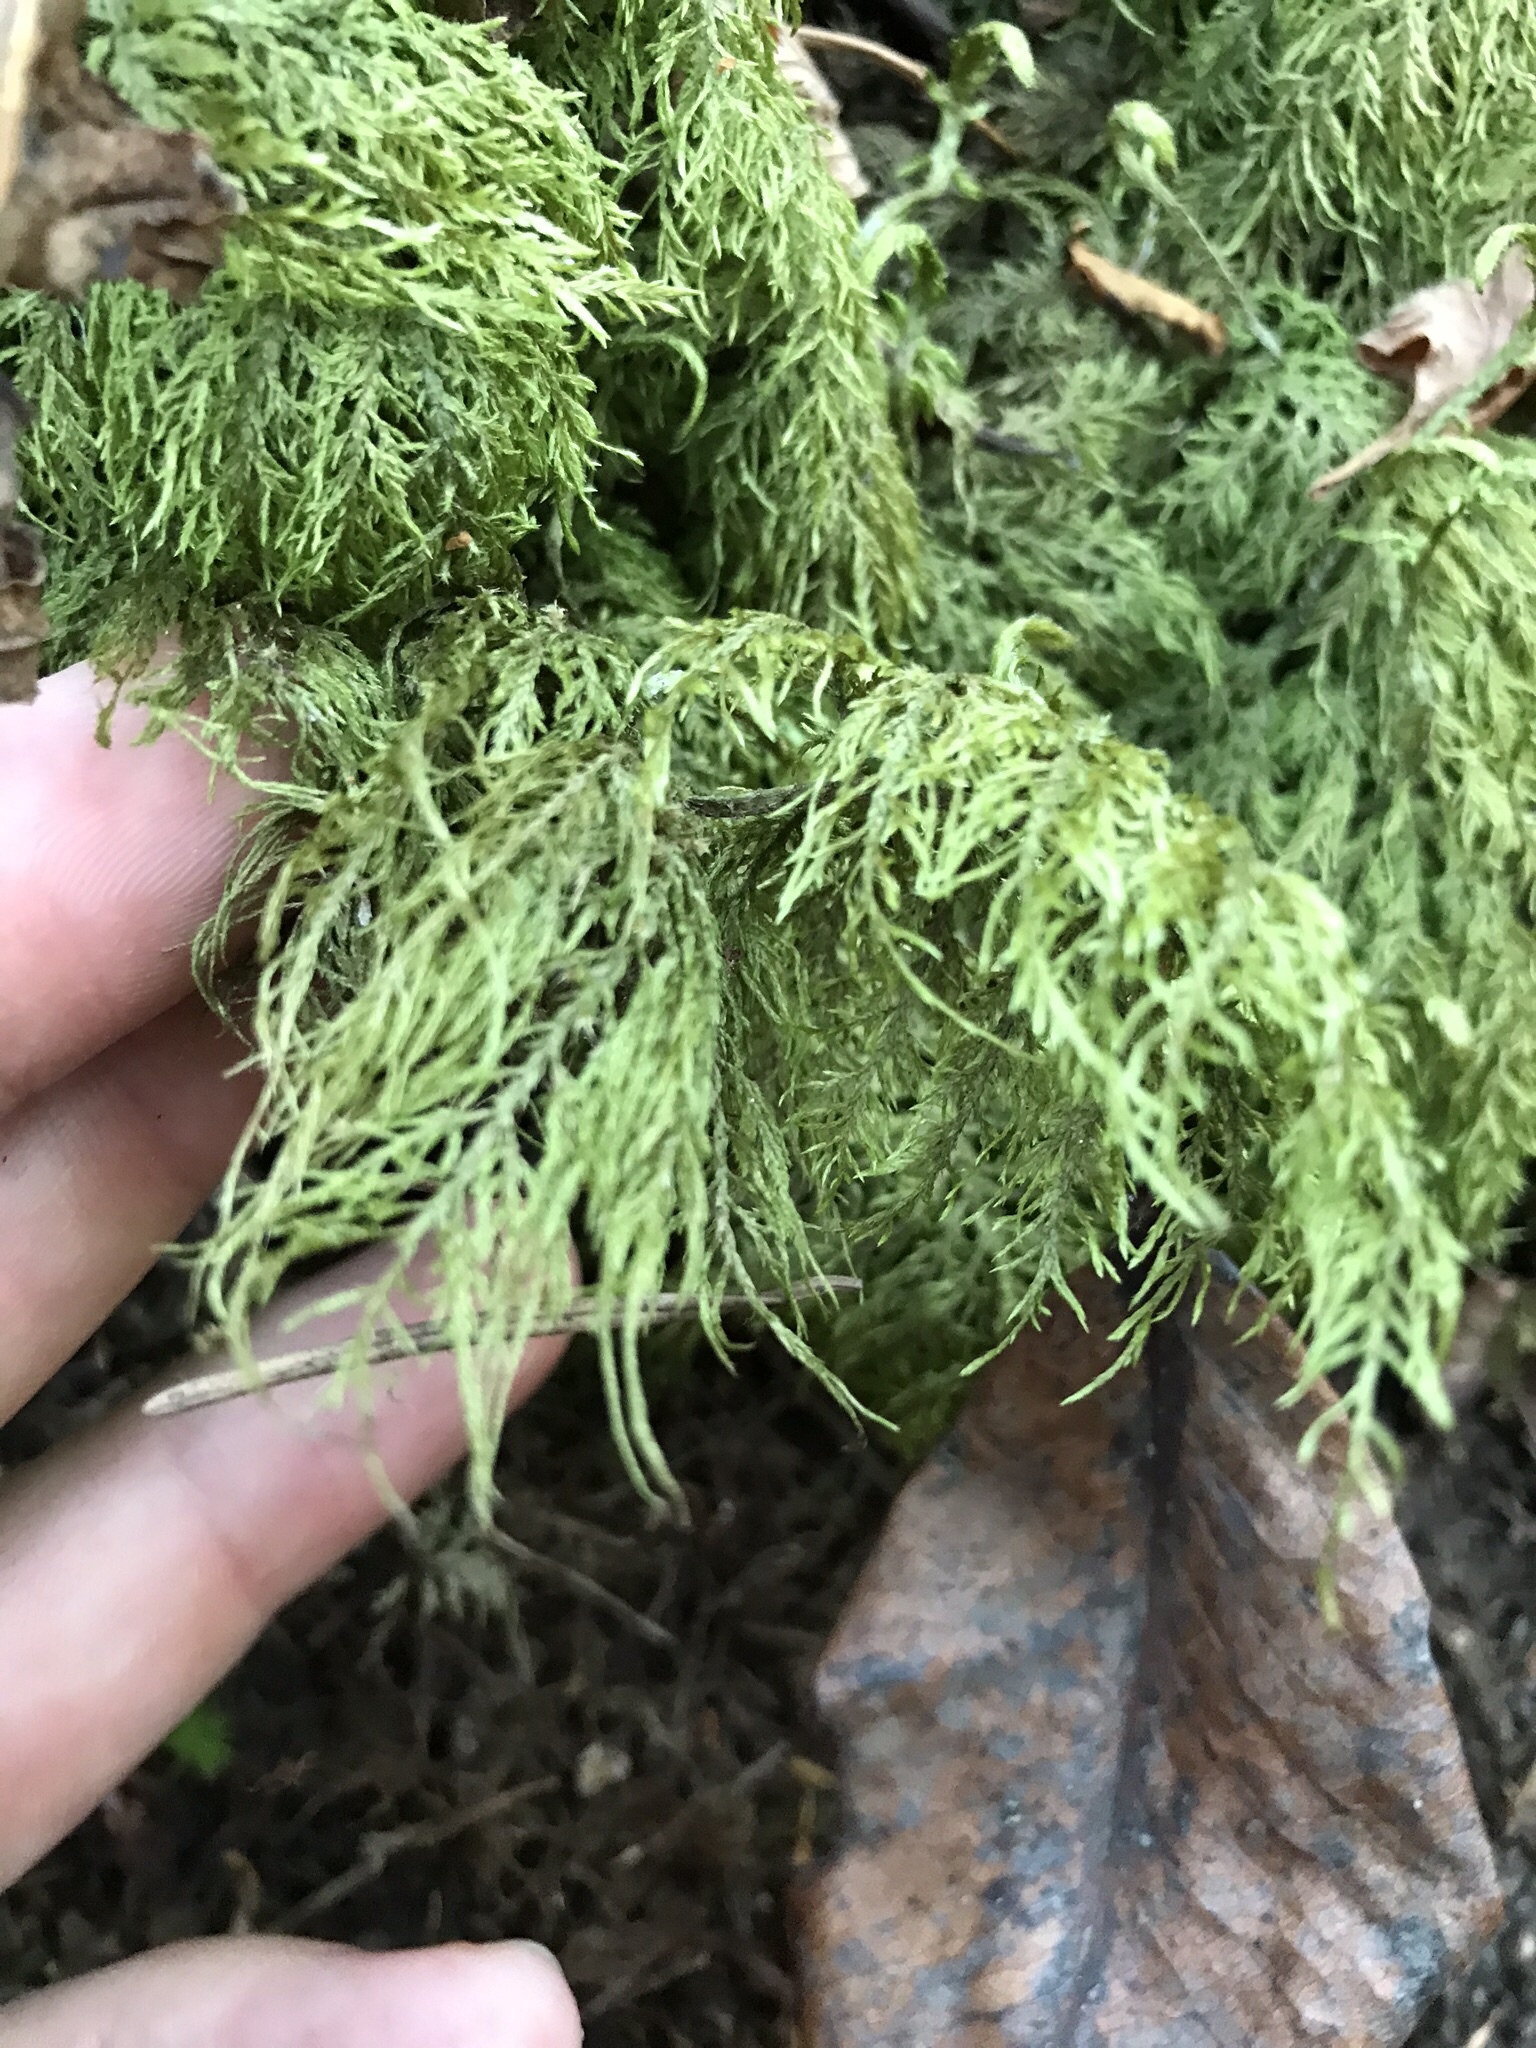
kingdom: Plantae
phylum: Bryophyta
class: Bryopsida
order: Hypnales
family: Hylocomiaceae
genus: Hylocomium
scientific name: Hylocomium splendens
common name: Stairstep moss
